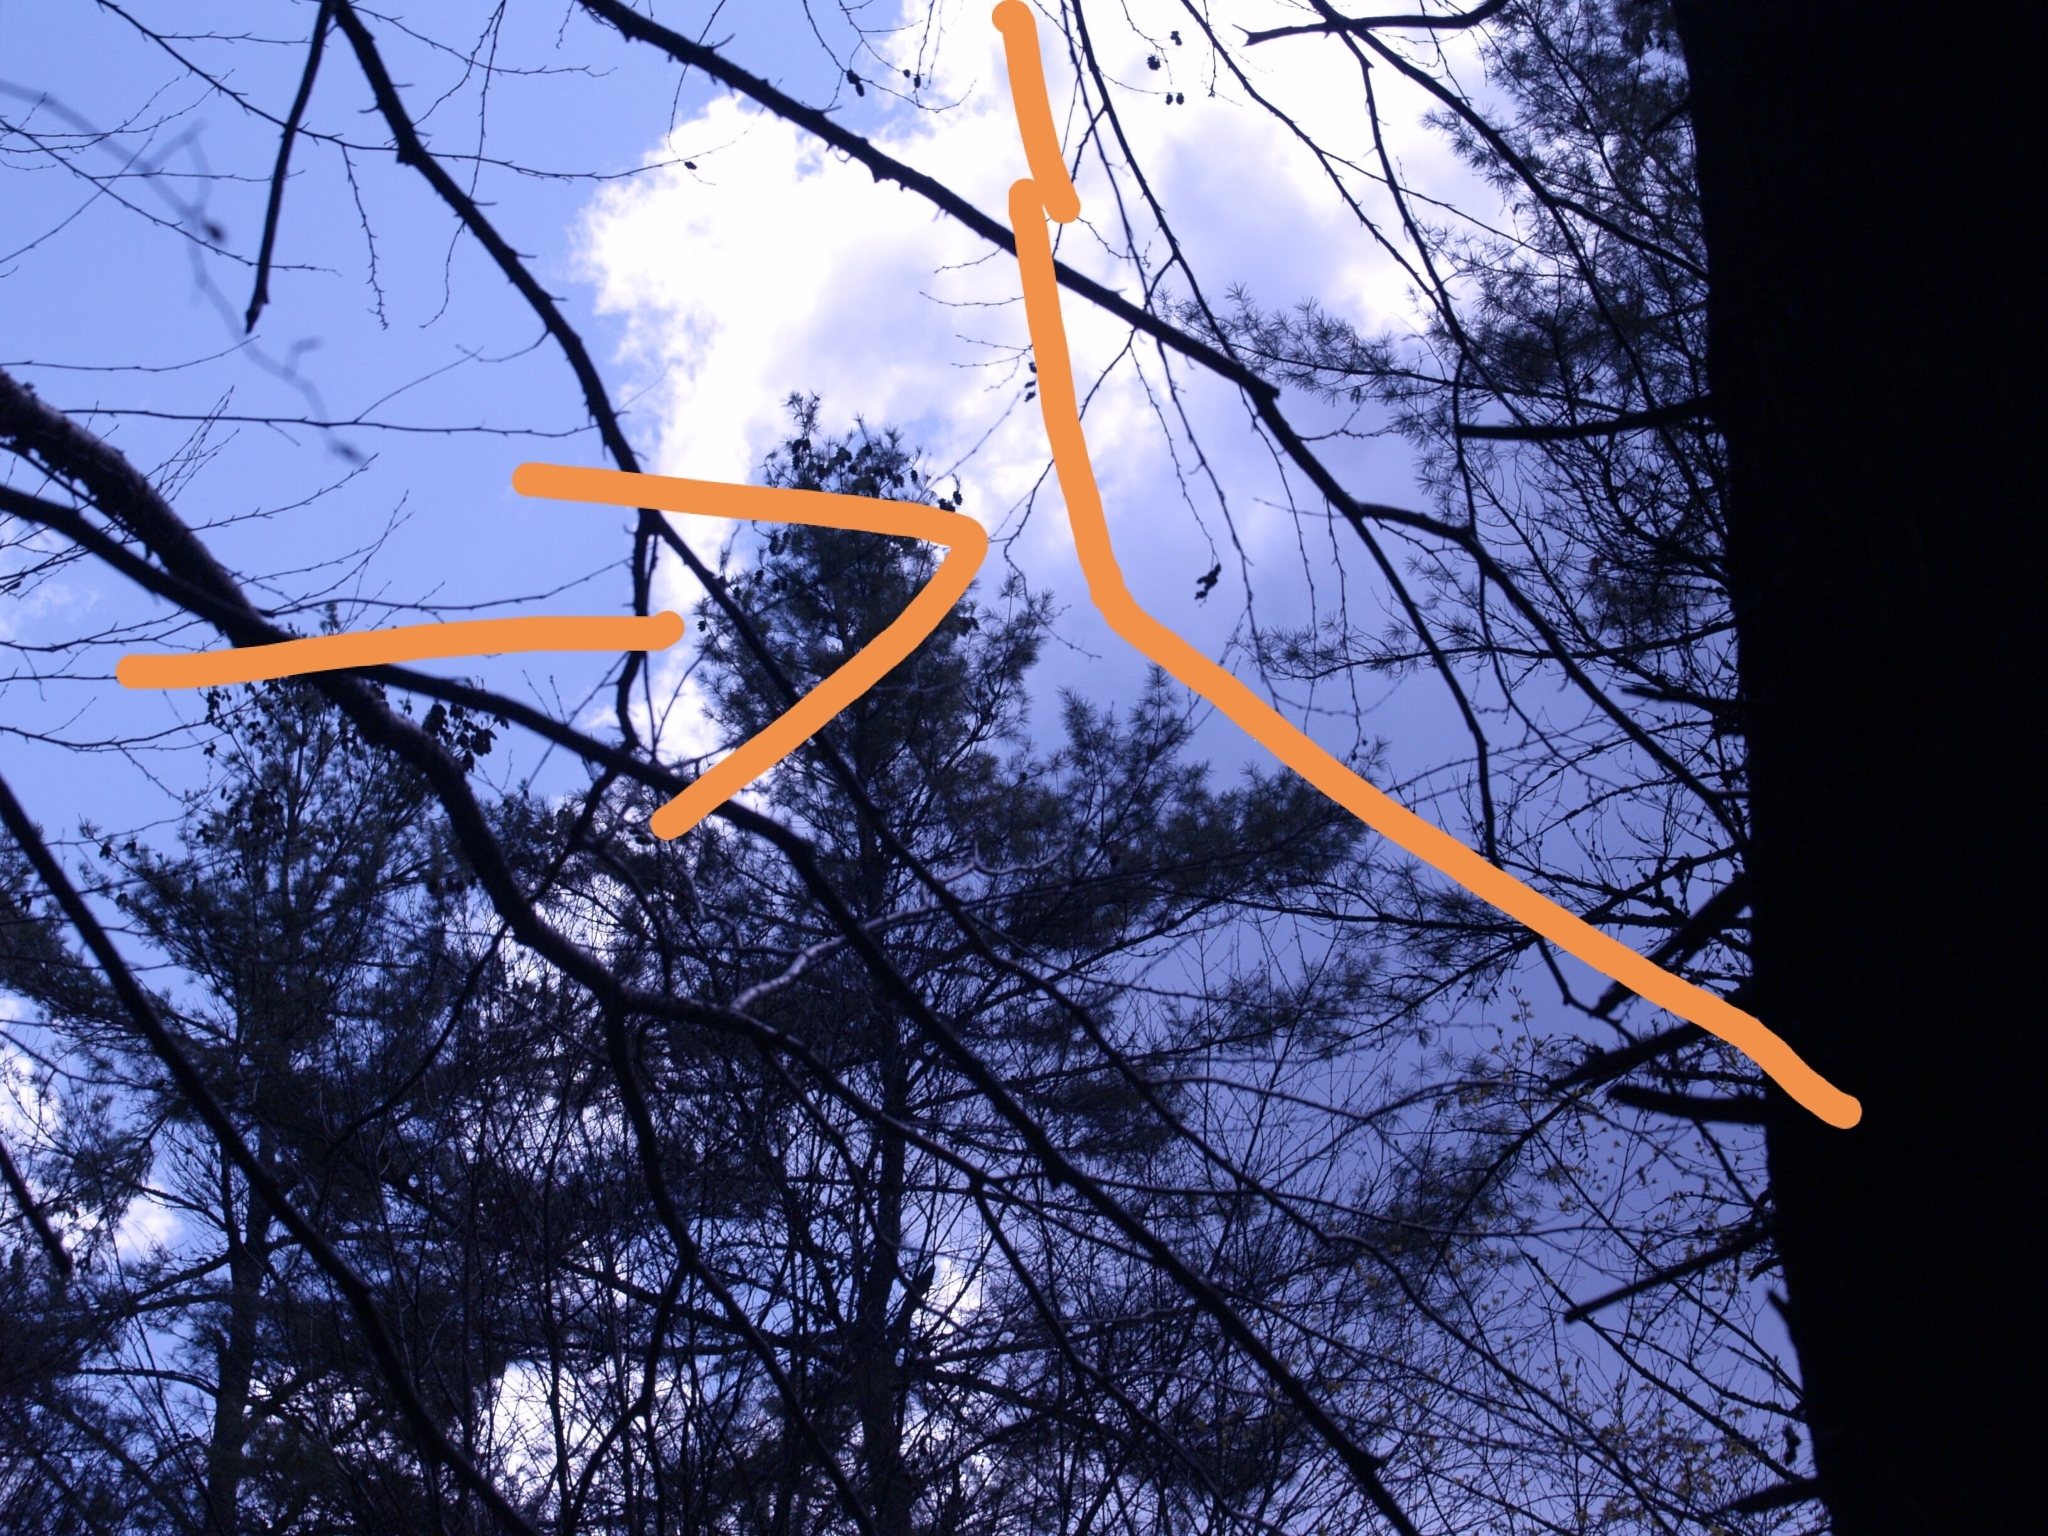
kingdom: Plantae
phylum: Tracheophyta
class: Pinopsida
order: Pinales
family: Pinaceae
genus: Pinus
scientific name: Pinus strobus
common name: Weymouth pine
